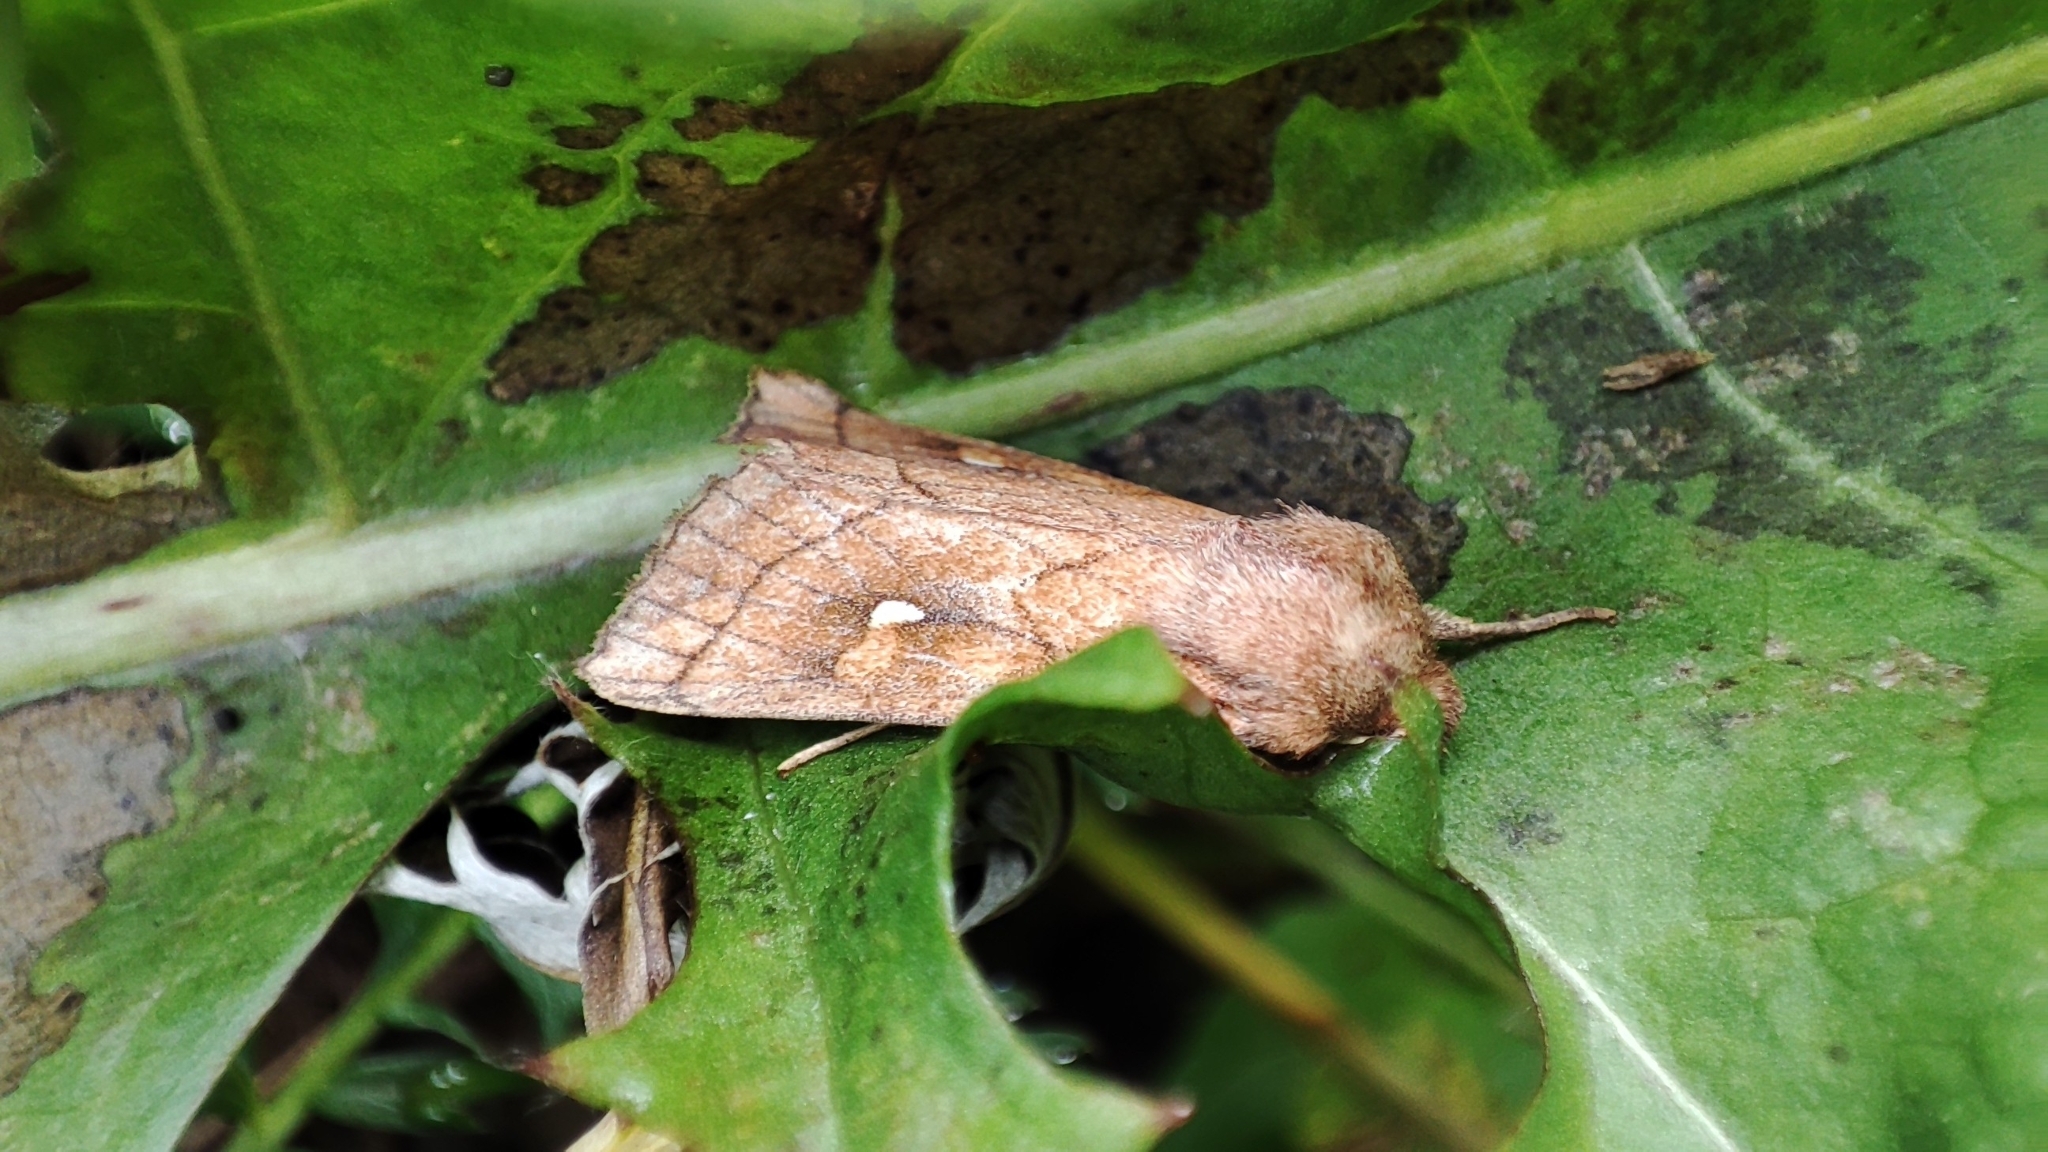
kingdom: Animalia
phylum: Arthropoda
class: Insecta
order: Lepidoptera
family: Noctuidae
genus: Mythimna
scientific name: Mythimna conigera
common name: Brown-line bright-eye
